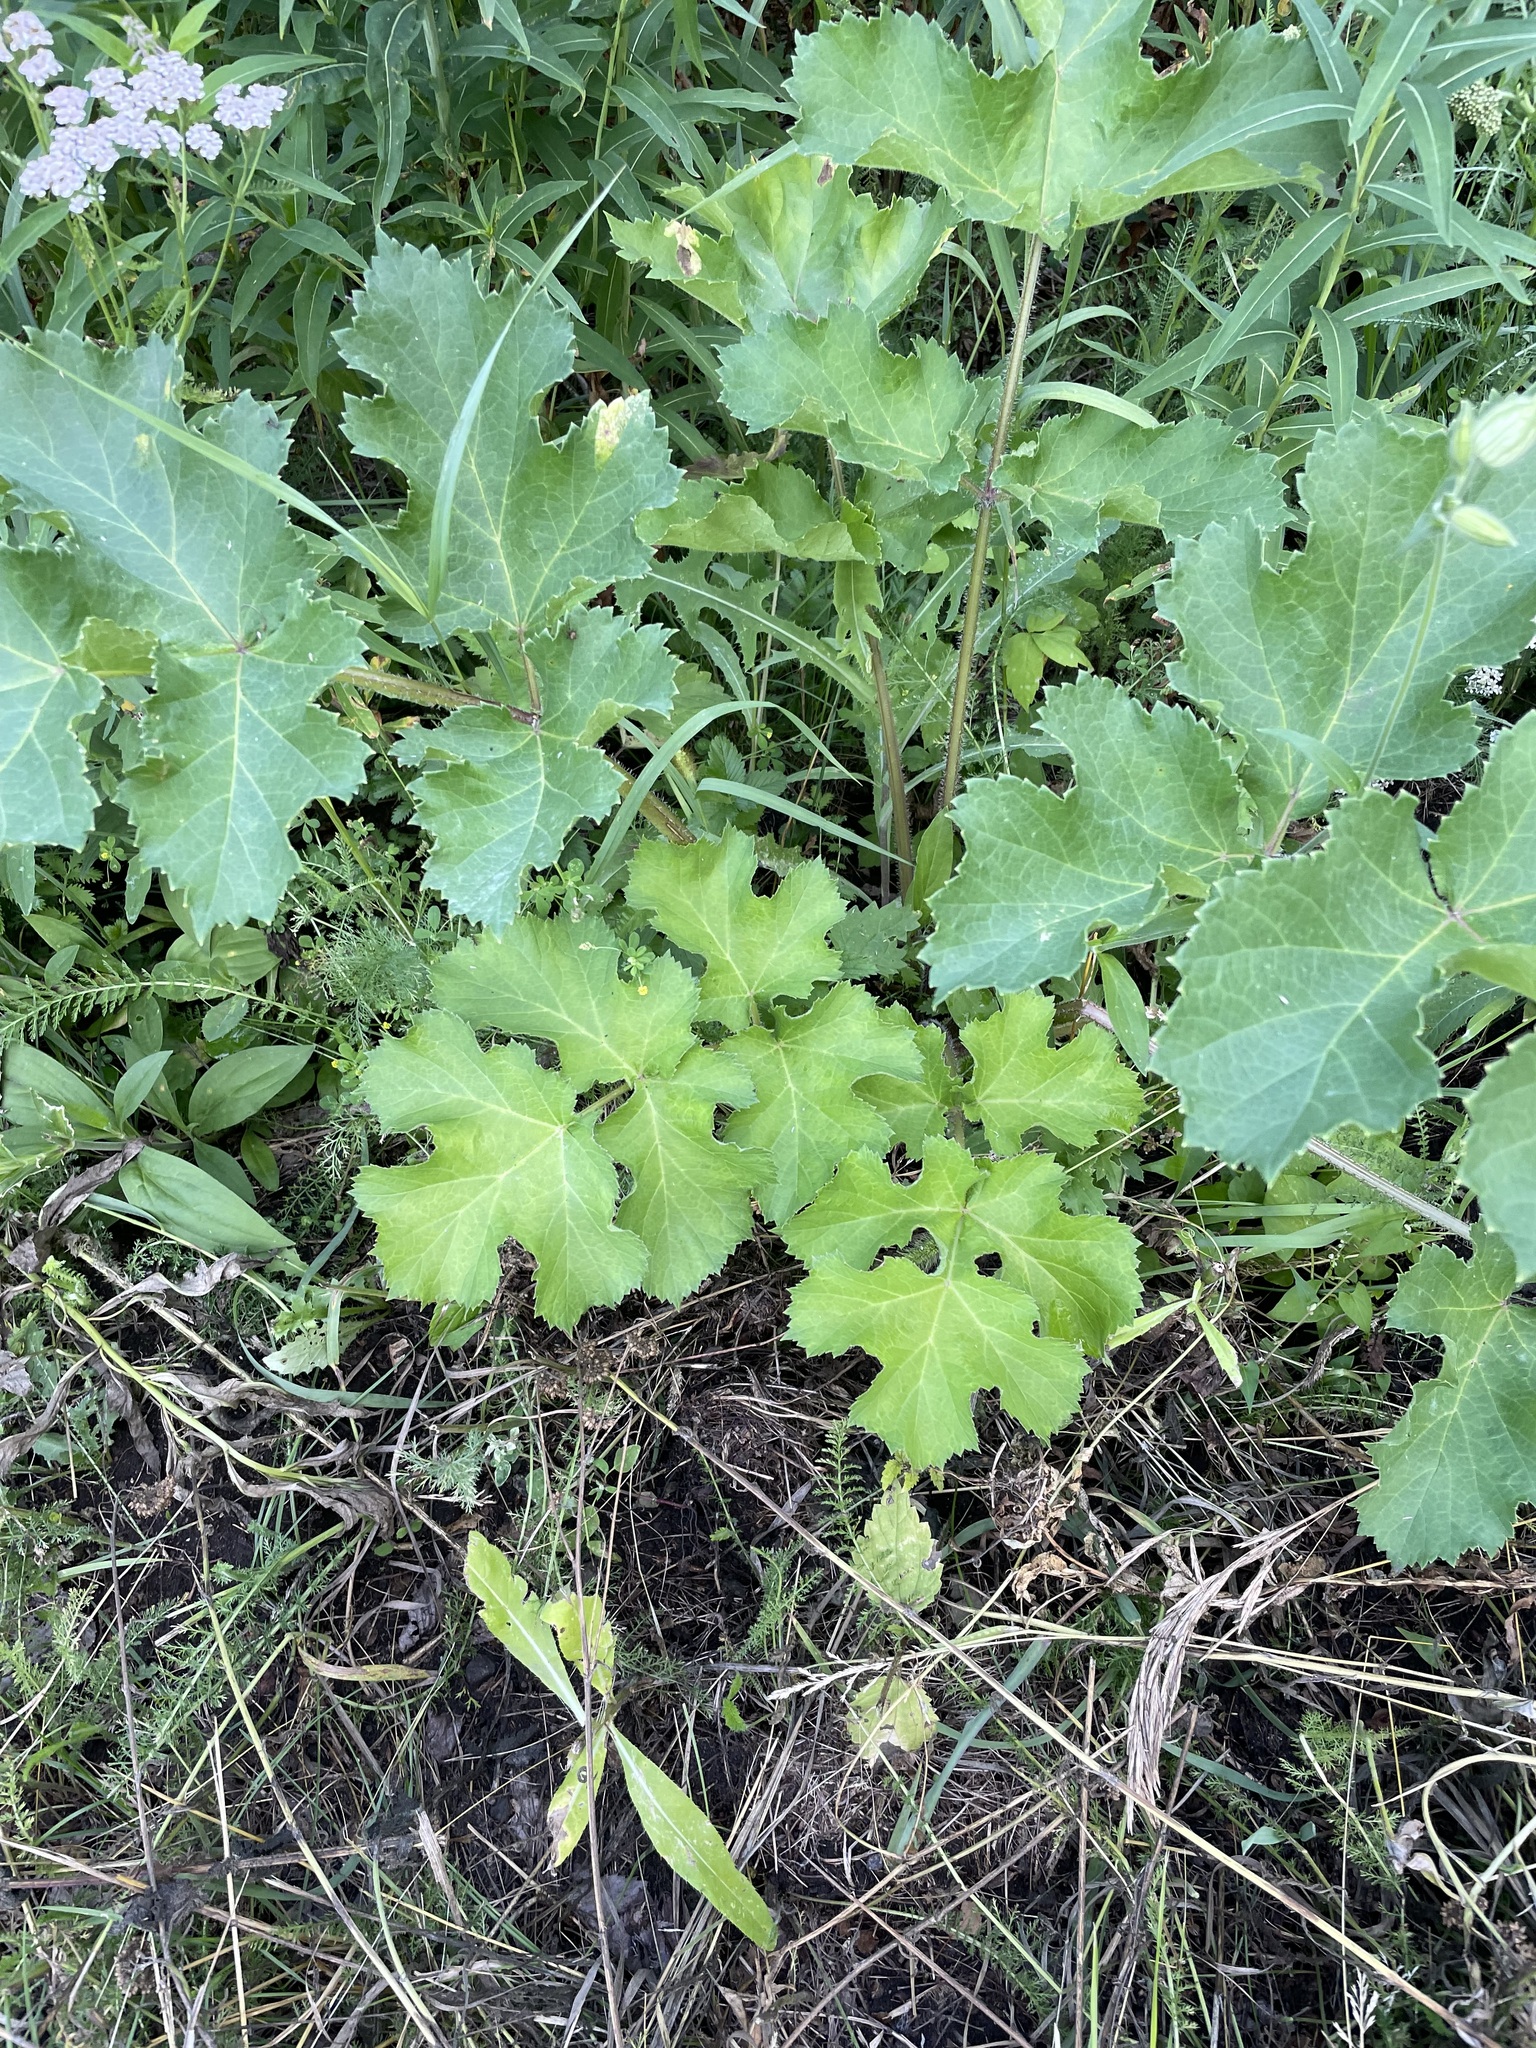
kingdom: Plantae
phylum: Tracheophyta
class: Magnoliopsida
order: Apiales
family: Apiaceae
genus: Heracleum
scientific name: Heracleum sphondylium
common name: Hogweed
